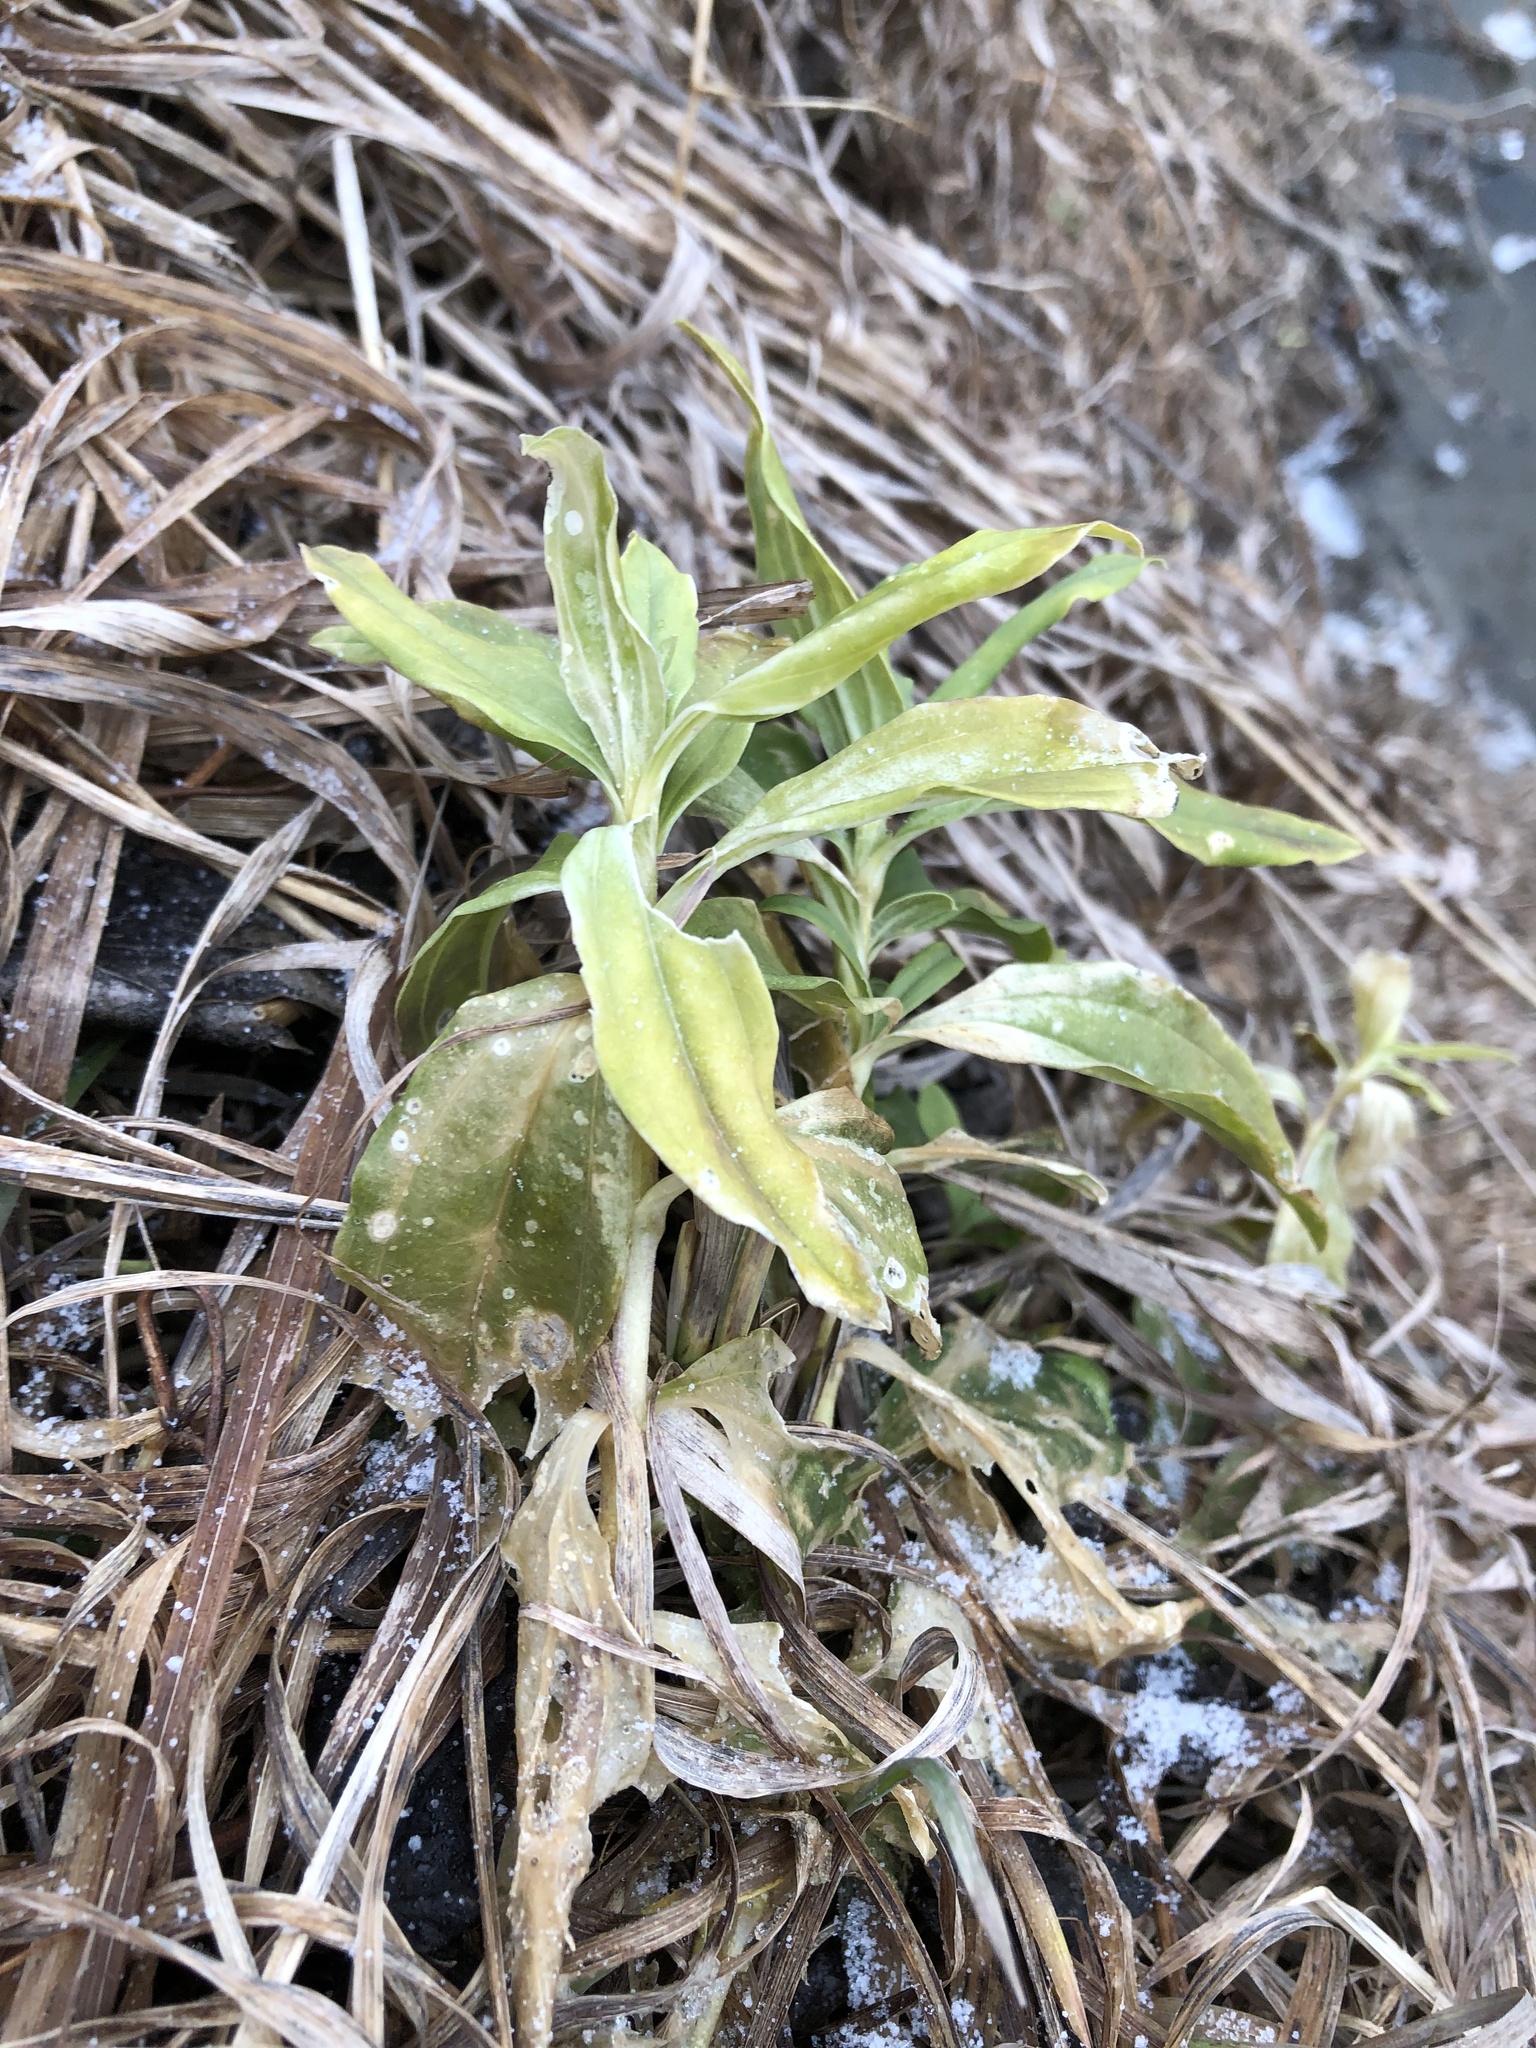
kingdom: Plantae
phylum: Tracheophyta
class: Magnoliopsida
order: Caryophyllales
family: Caryophyllaceae
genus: Saponaria
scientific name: Saponaria officinalis
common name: Soapwort
